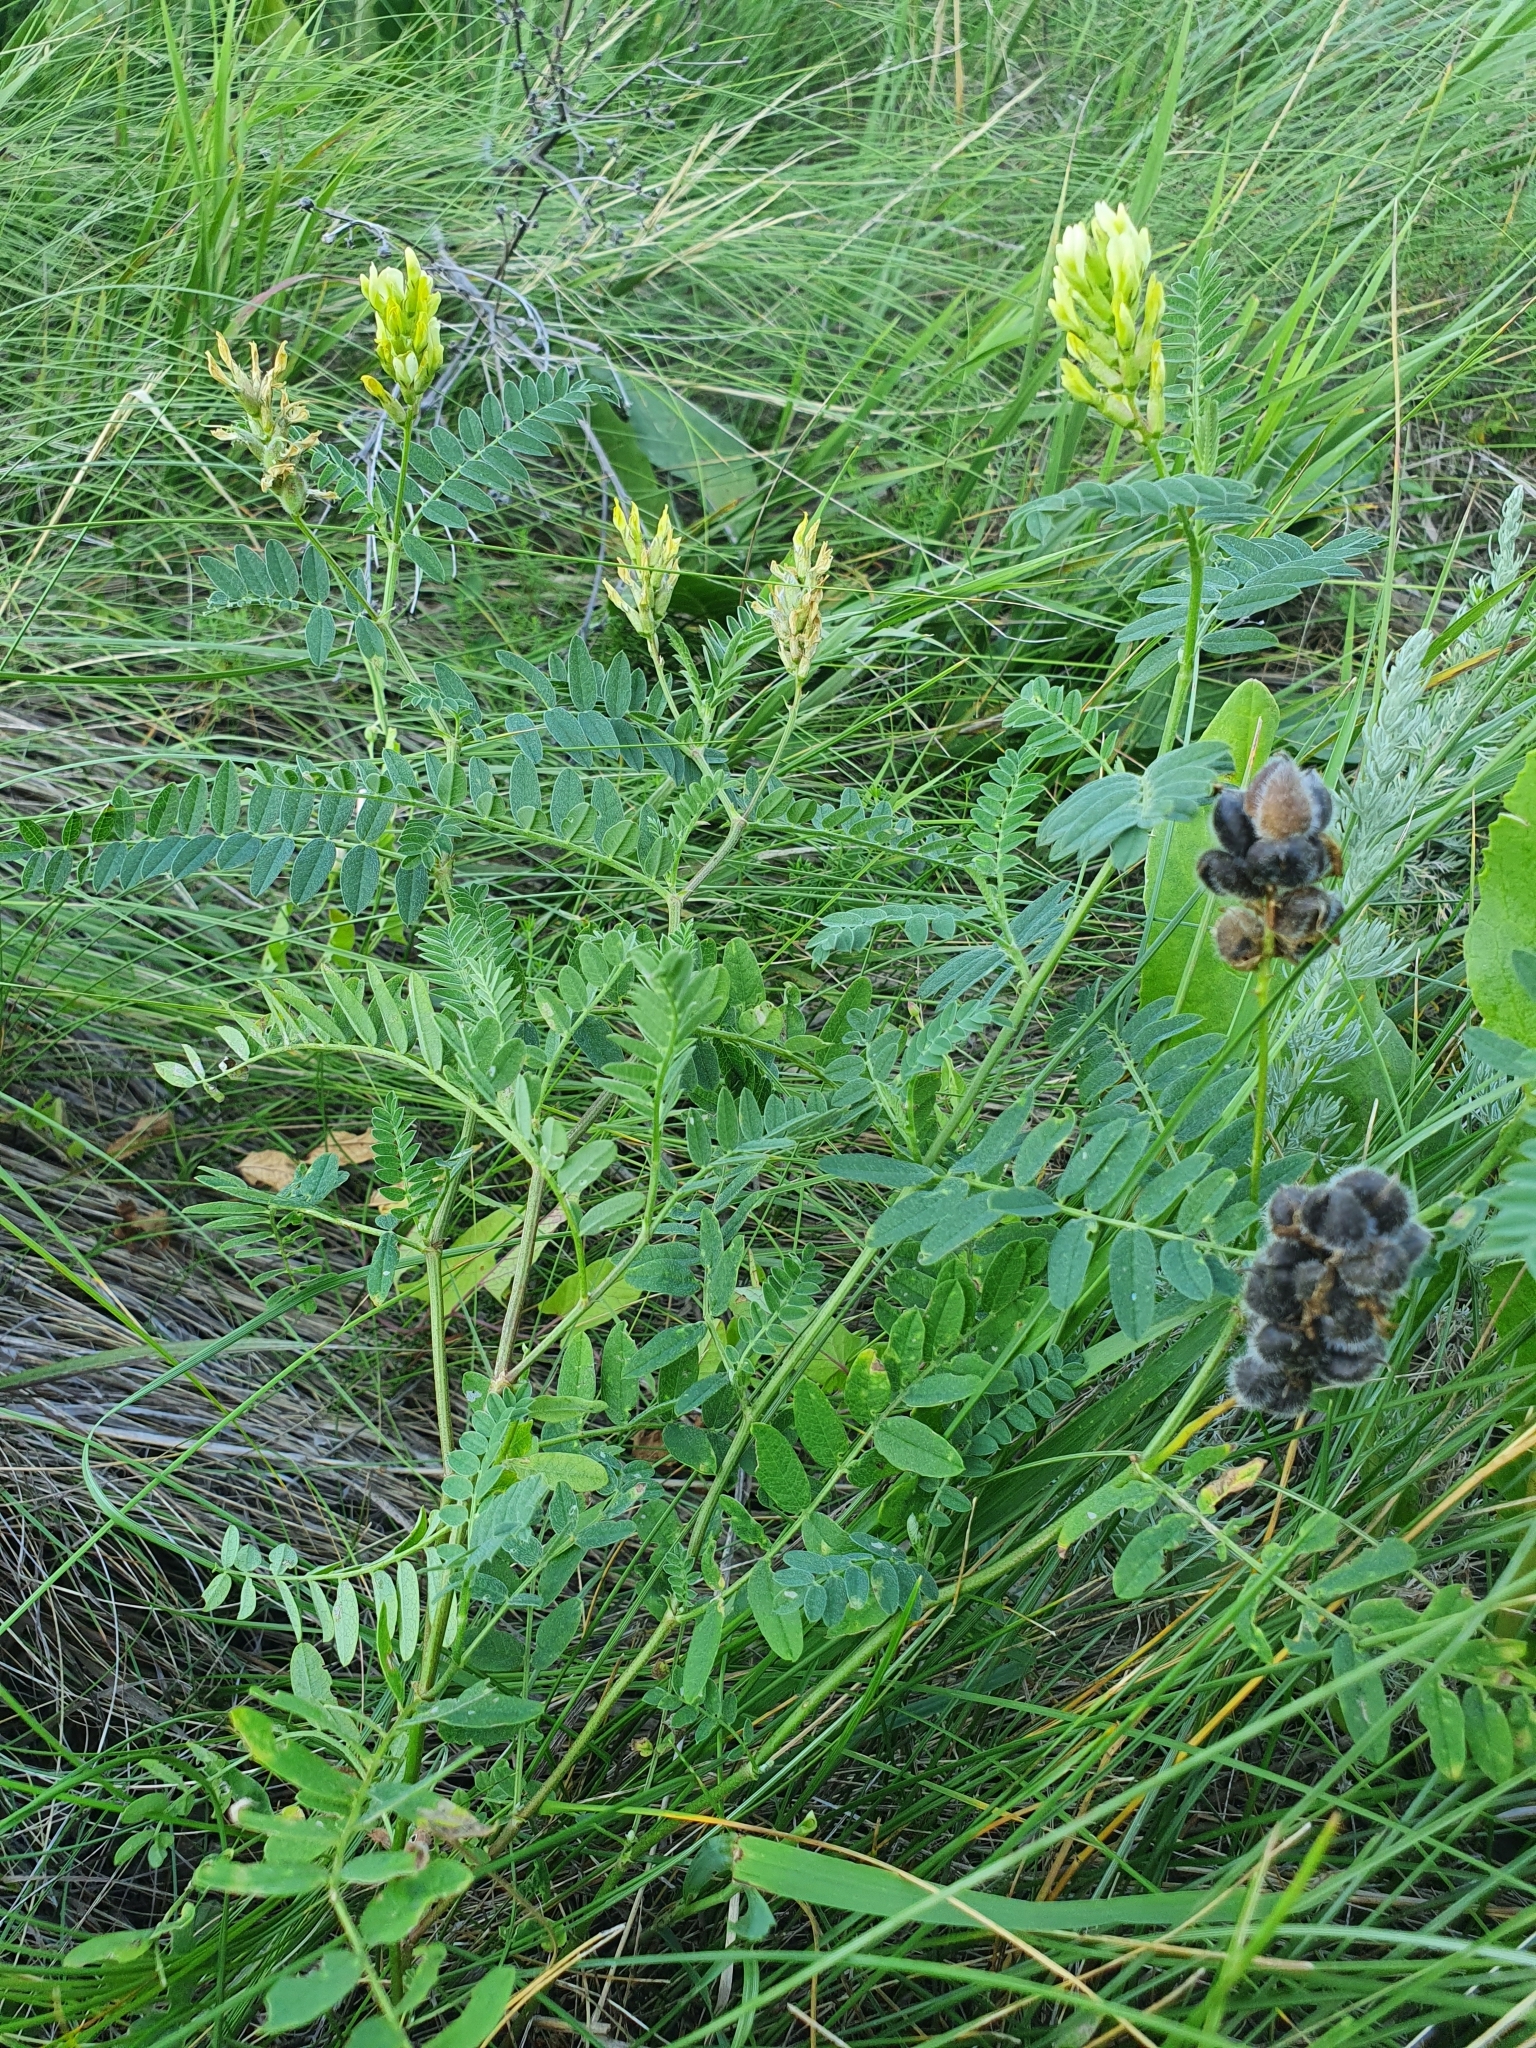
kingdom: Plantae
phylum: Tracheophyta
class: Magnoliopsida
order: Fabales
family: Fabaceae
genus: Astragalus
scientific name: Astragalus cicer
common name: Chick-pea milk-vetch
